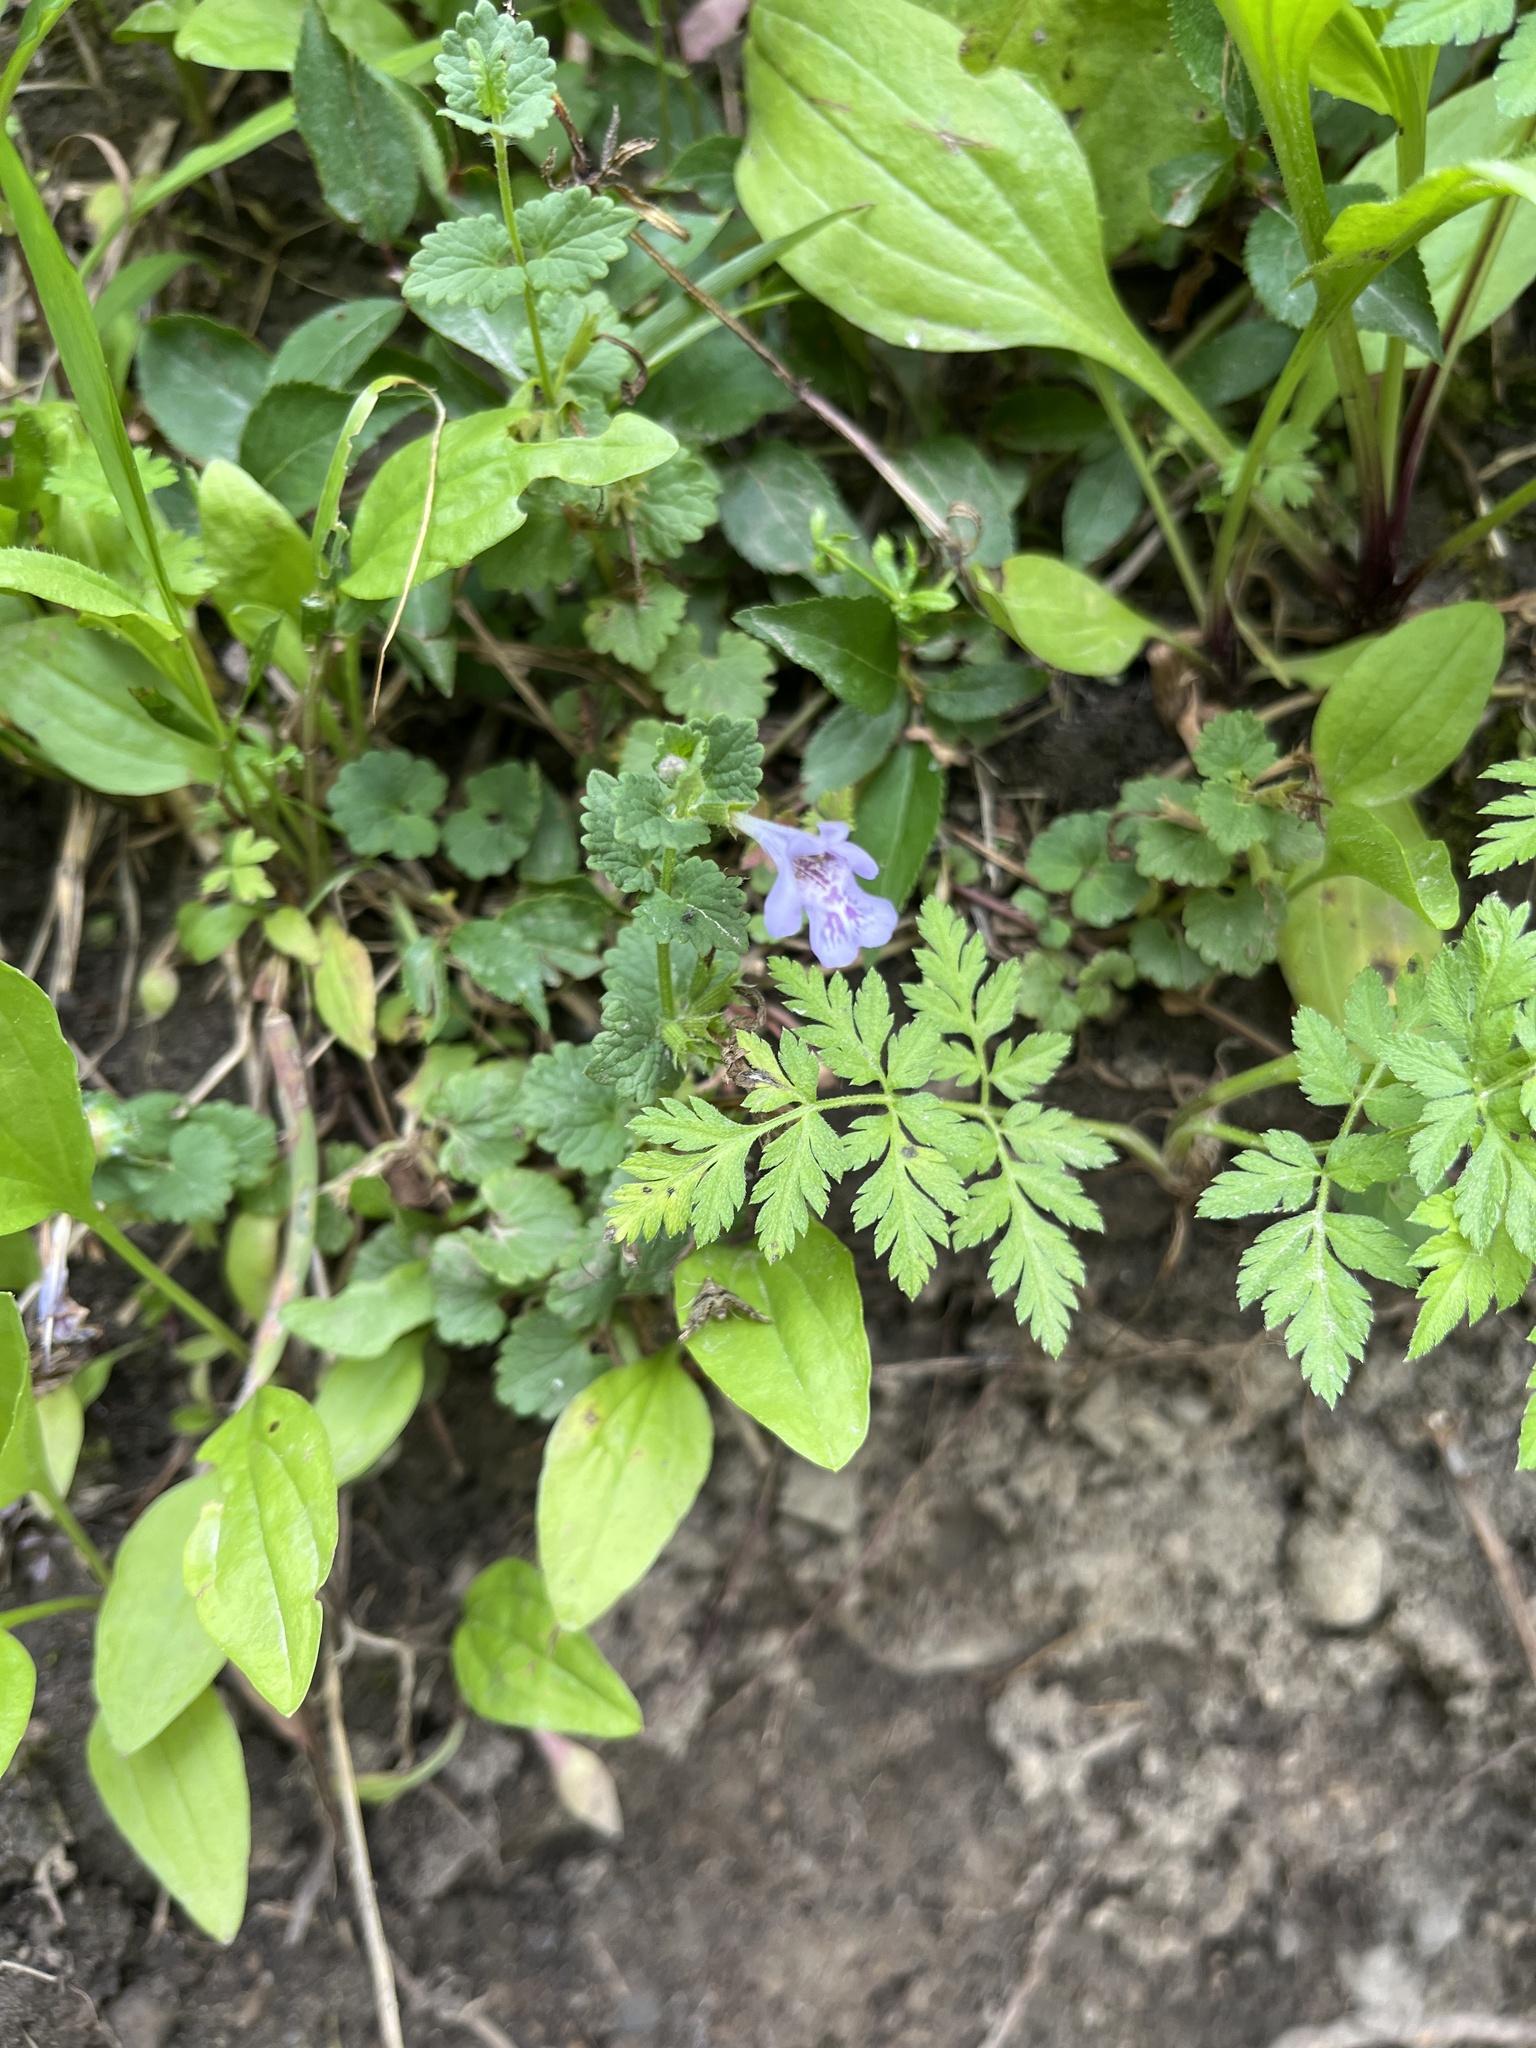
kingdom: Plantae
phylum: Tracheophyta
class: Magnoliopsida
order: Lamiales
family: Lamiaceae
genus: Glechoma
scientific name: Glechoma hederacea
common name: Ground ivy
